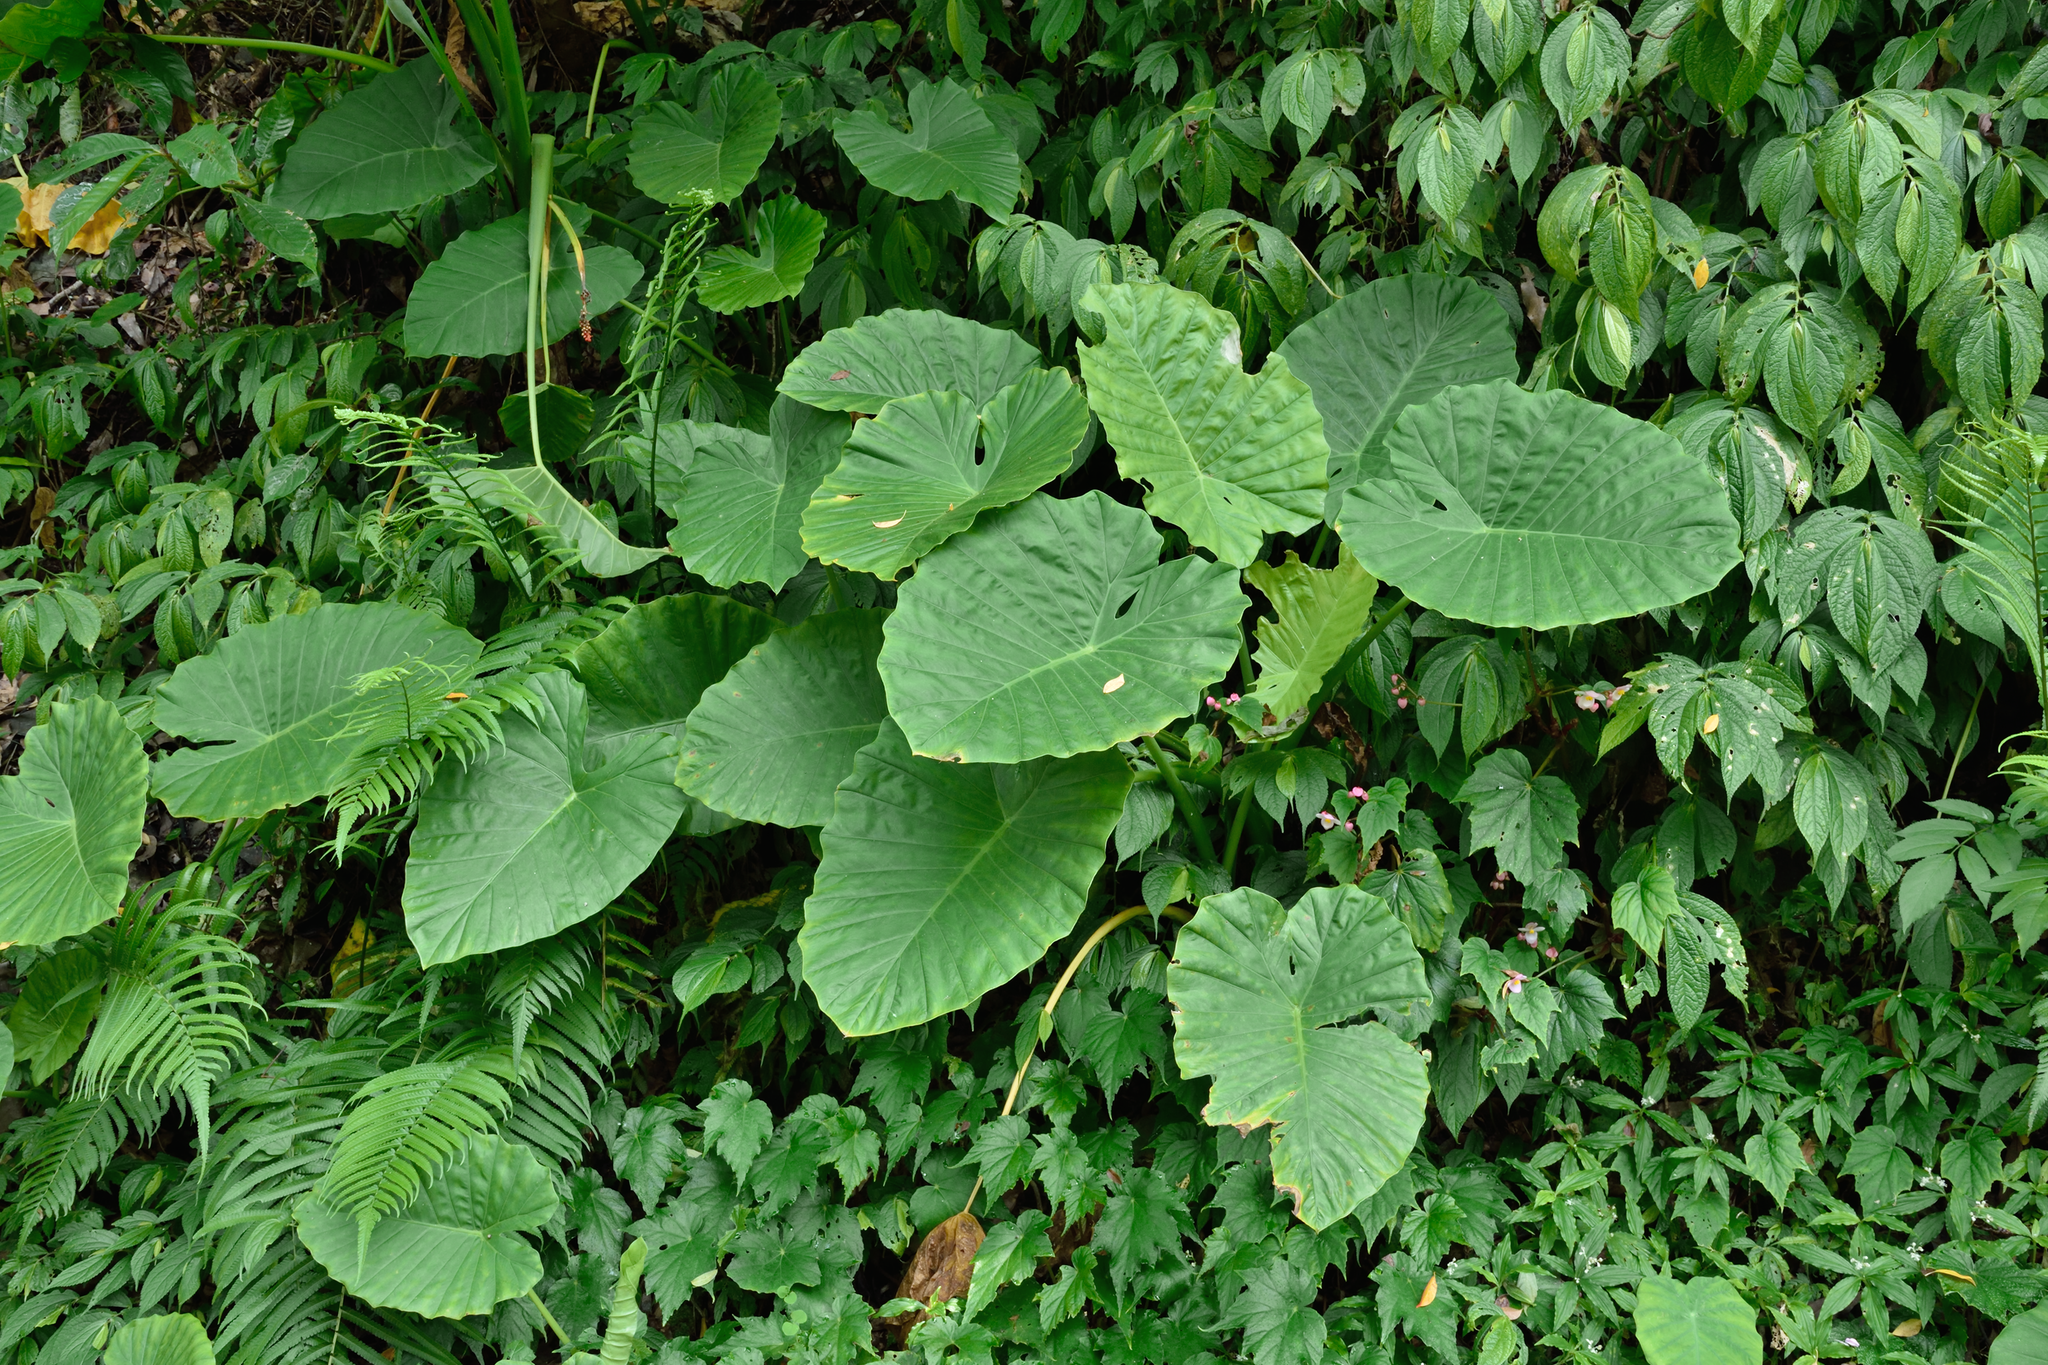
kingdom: Plantae
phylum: Tracheophyta
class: Liliopsida
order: Alismatales
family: Araceae
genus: Alocasia
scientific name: Alocasia odora
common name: Asian taro
